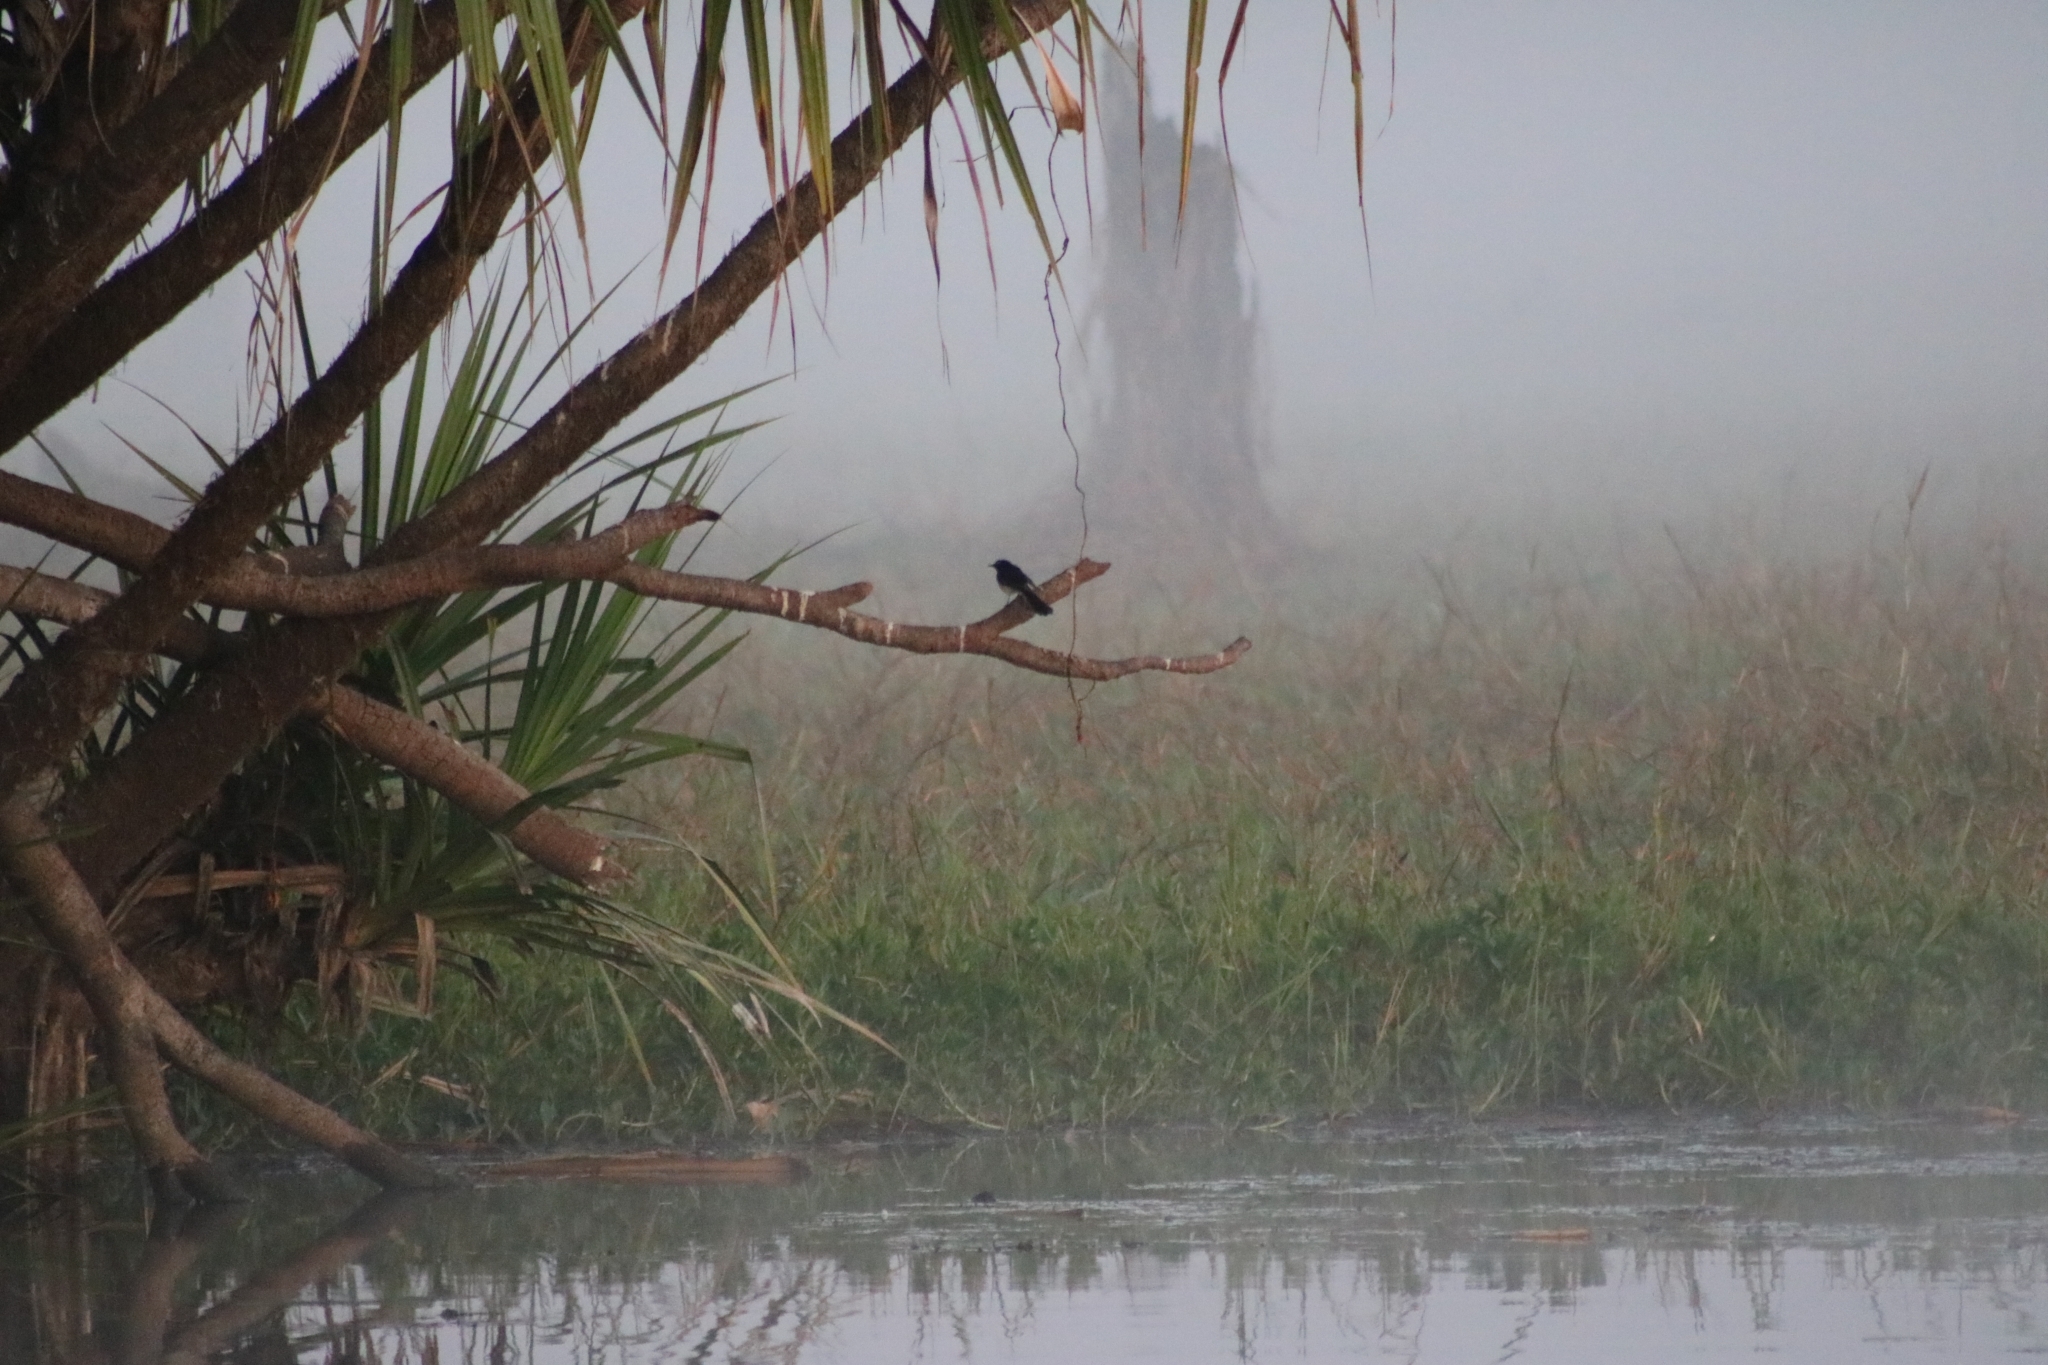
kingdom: Animalia
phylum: Chordata
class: Aves
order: Passeriformes
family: Rhipiduridae
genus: Rhipidura
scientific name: Rhipidura leucophrys
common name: Willie wagtail
